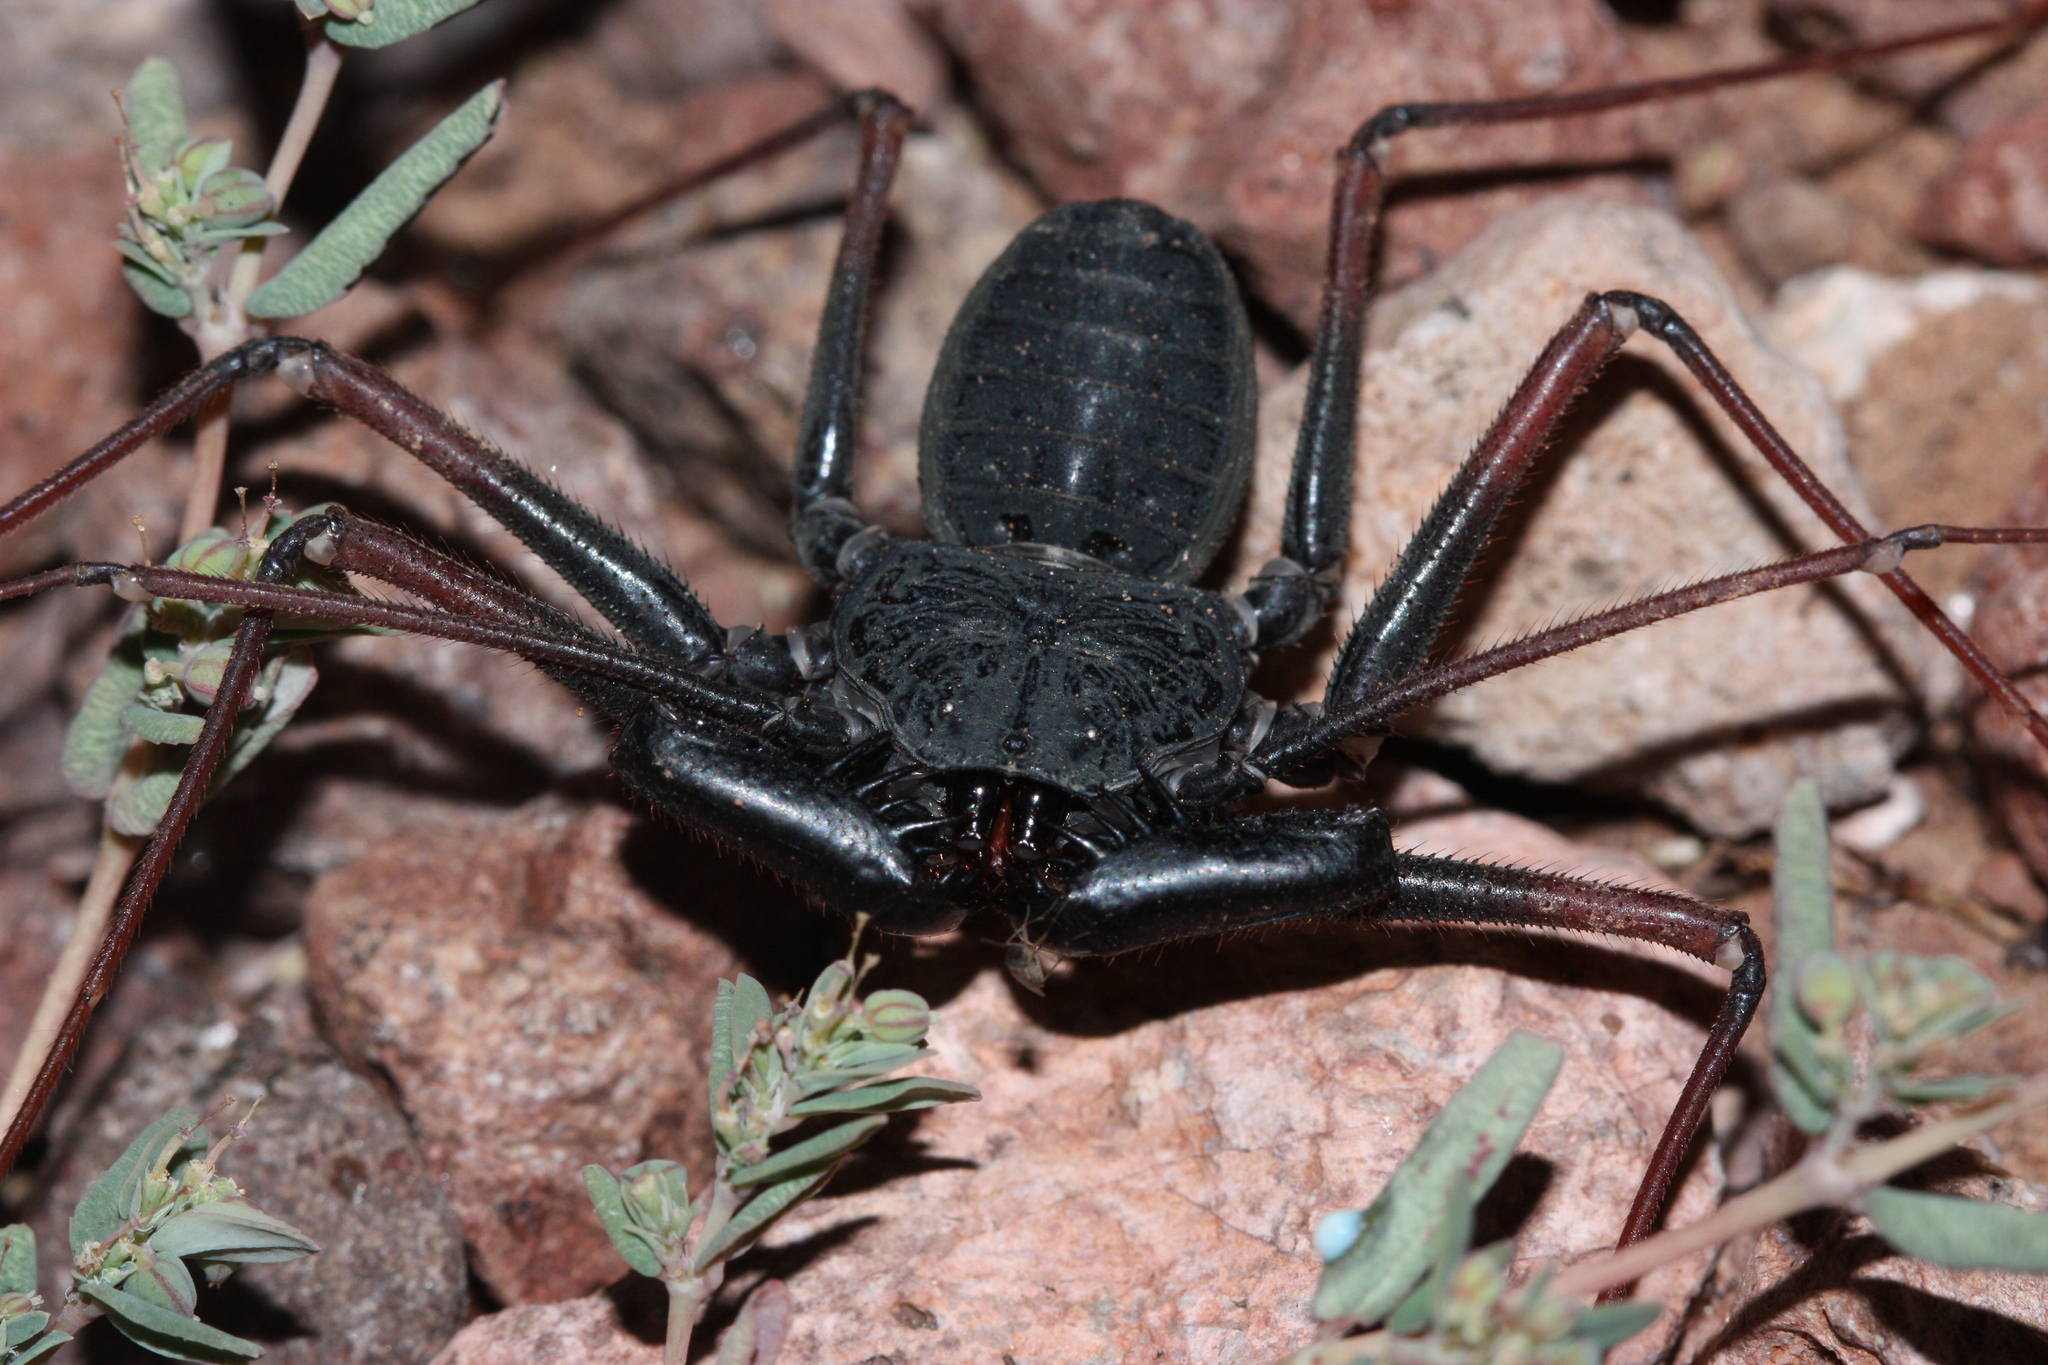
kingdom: Animalia
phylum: Arthropoda
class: Arachnida
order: Amblypygi
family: Phrynidae
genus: Paraphrynus
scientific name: Paraphrynus carolynae
